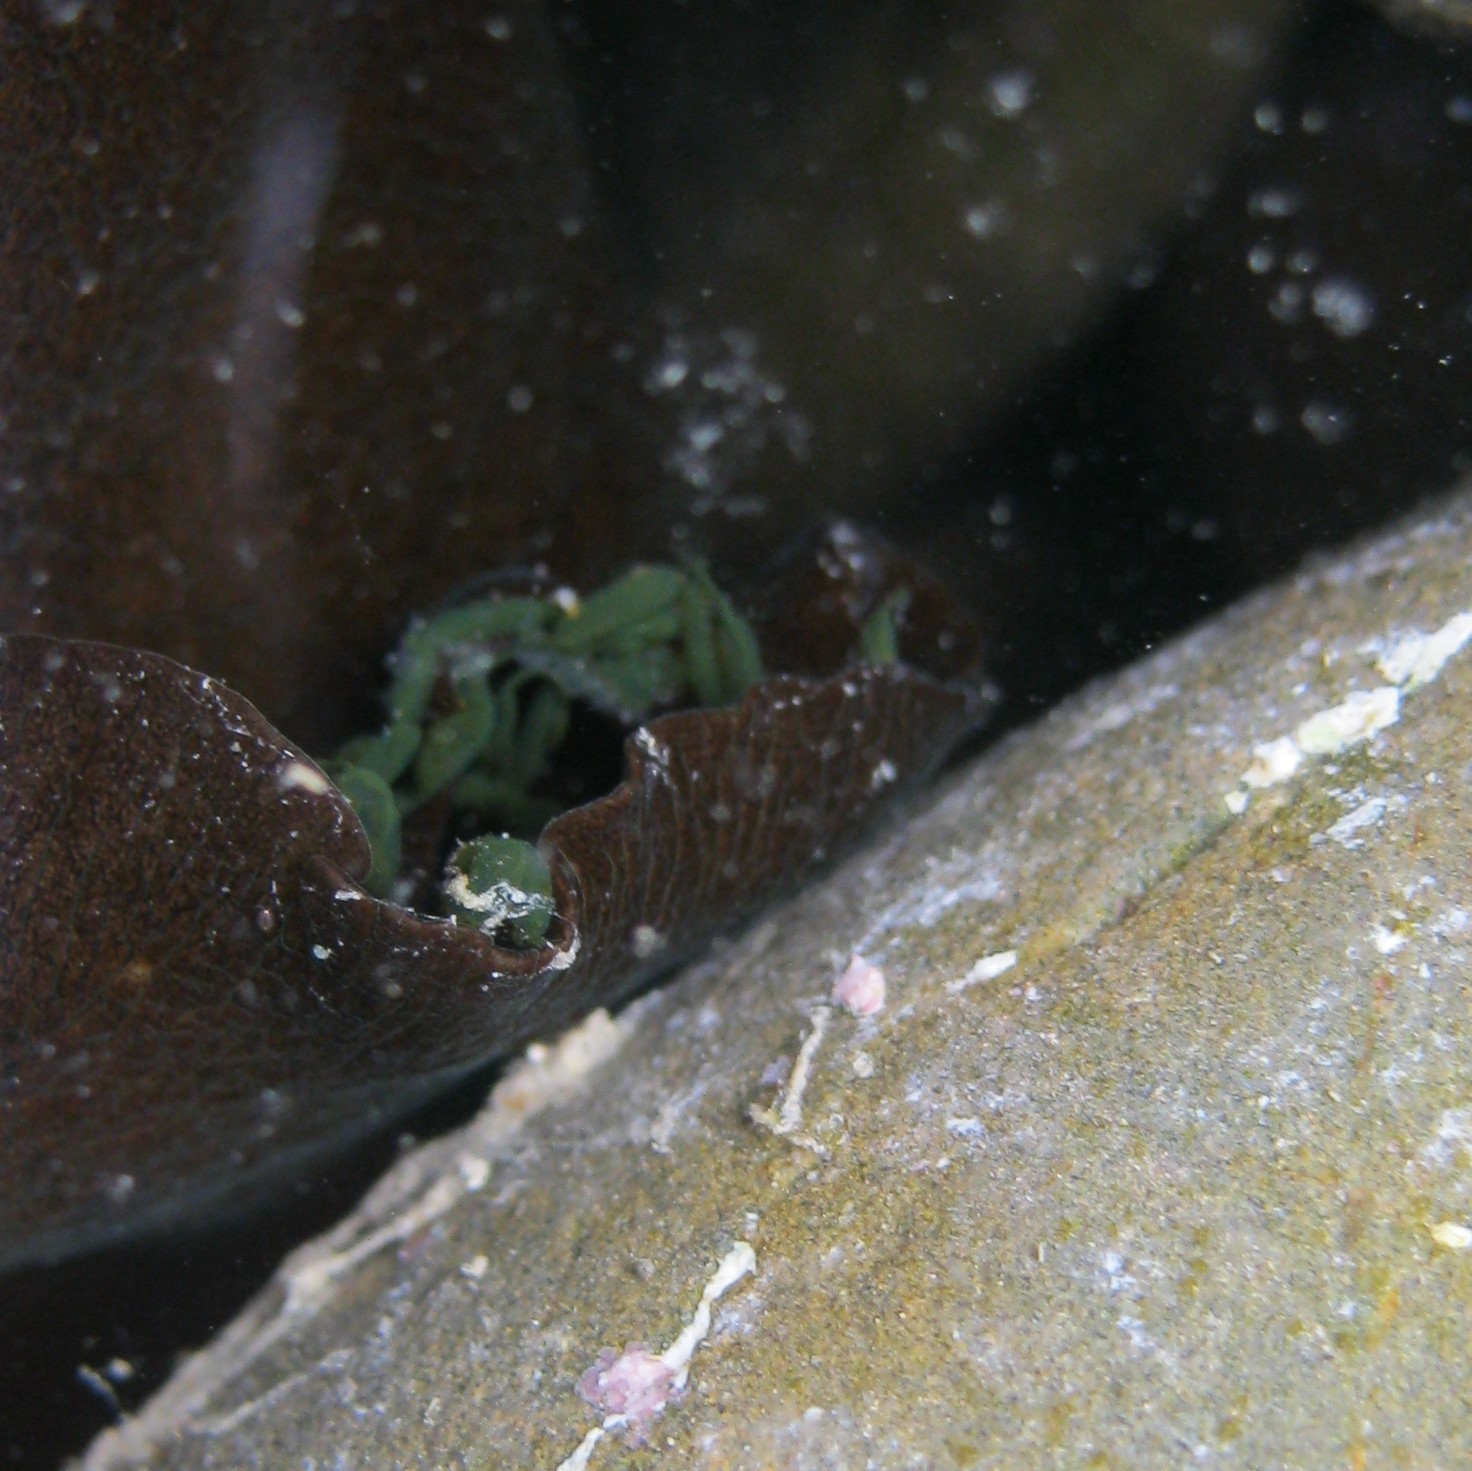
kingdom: Animalia
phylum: Mollusca
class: Gastropoda
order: Aplysiida
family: Aplysiidae
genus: Aplysia
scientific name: Aplysia juliana
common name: Walking sea hare
